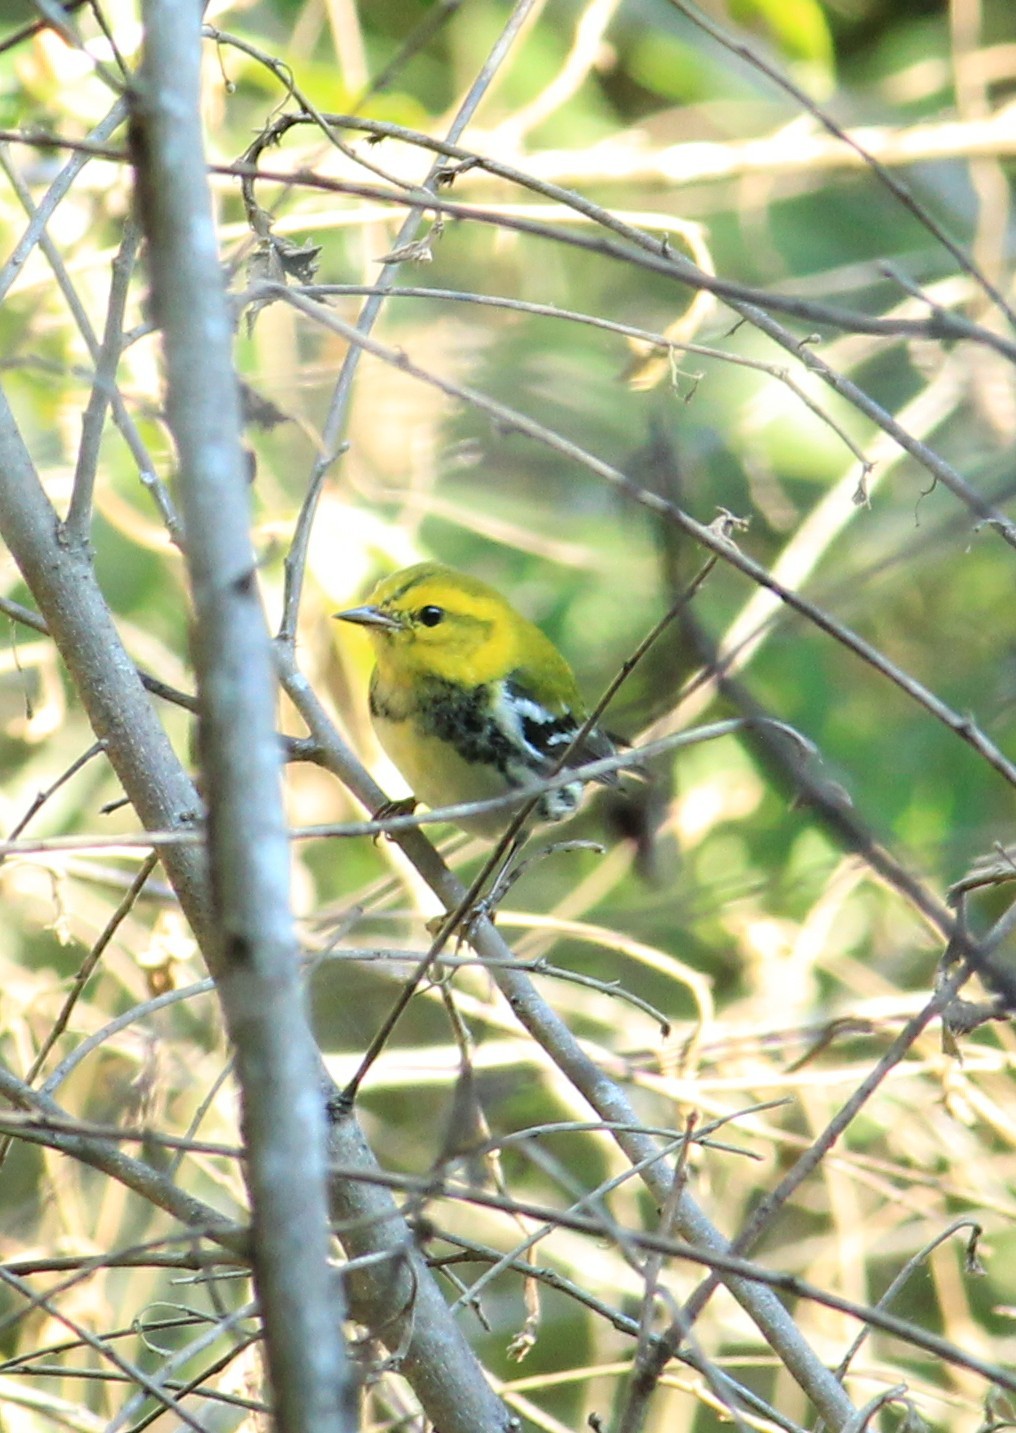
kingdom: Animalia
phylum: Chordata
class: Aves
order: Passeriformes
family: Parulidae
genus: Setophaga
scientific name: Setophaga virens
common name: Black-throated green warbler
